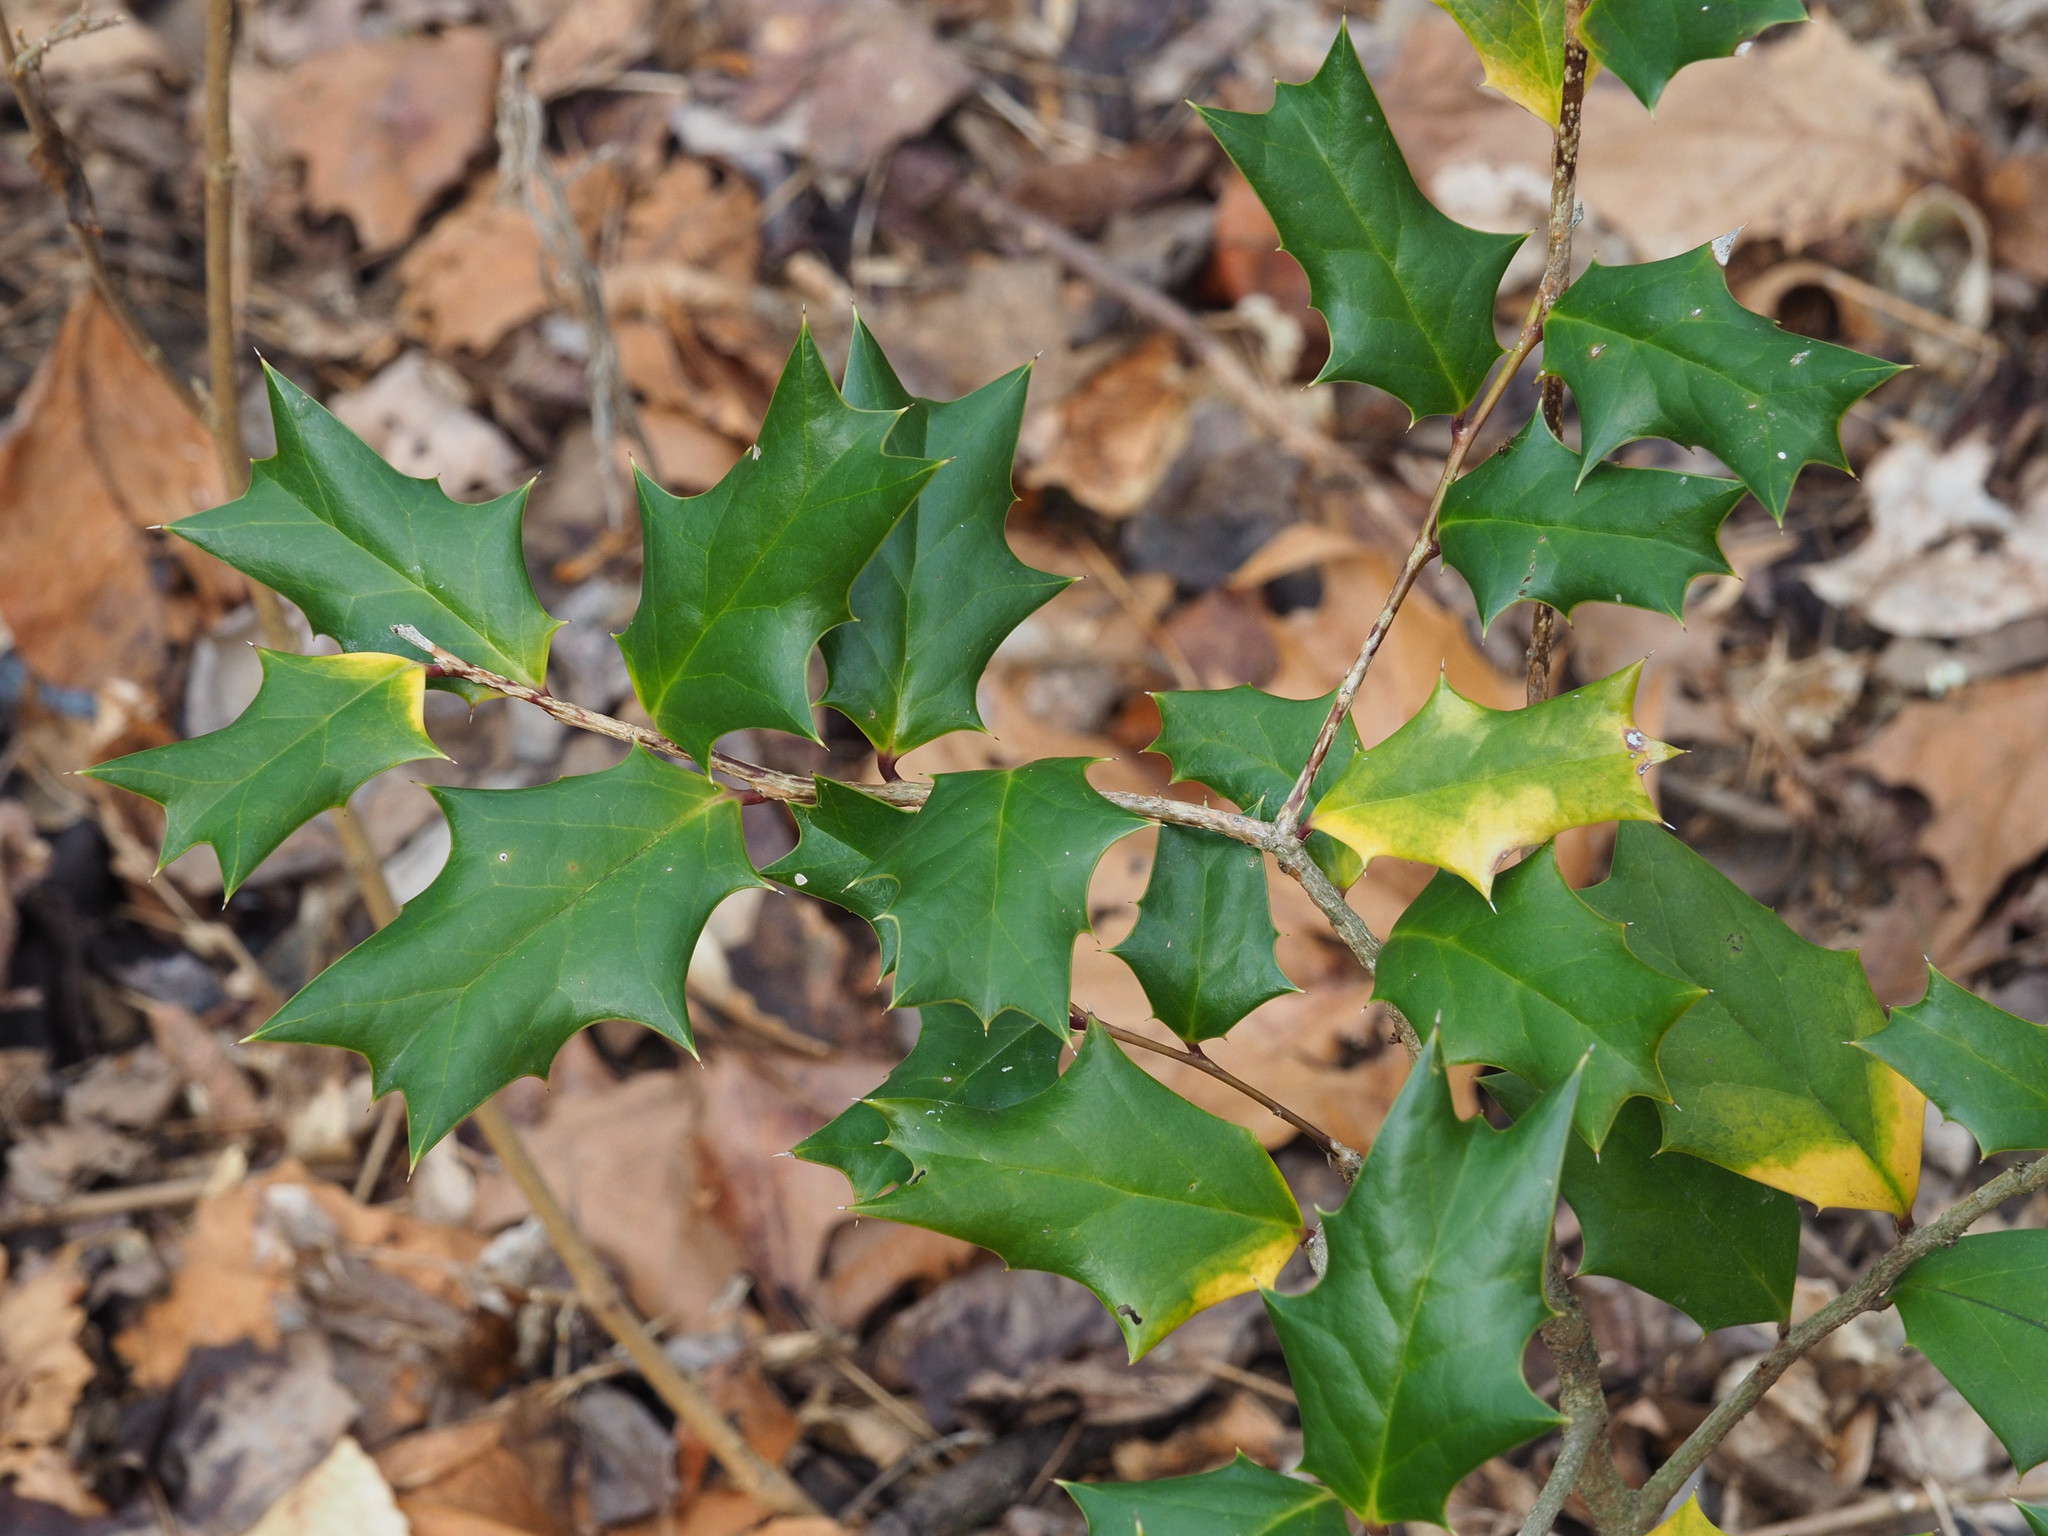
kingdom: Plantae
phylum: Tracheophyta
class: Magnoliopsida
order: Aquifoliales
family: Aquifoliaceae
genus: Ilex
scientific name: Ilex cornuta
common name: Chinese holly
